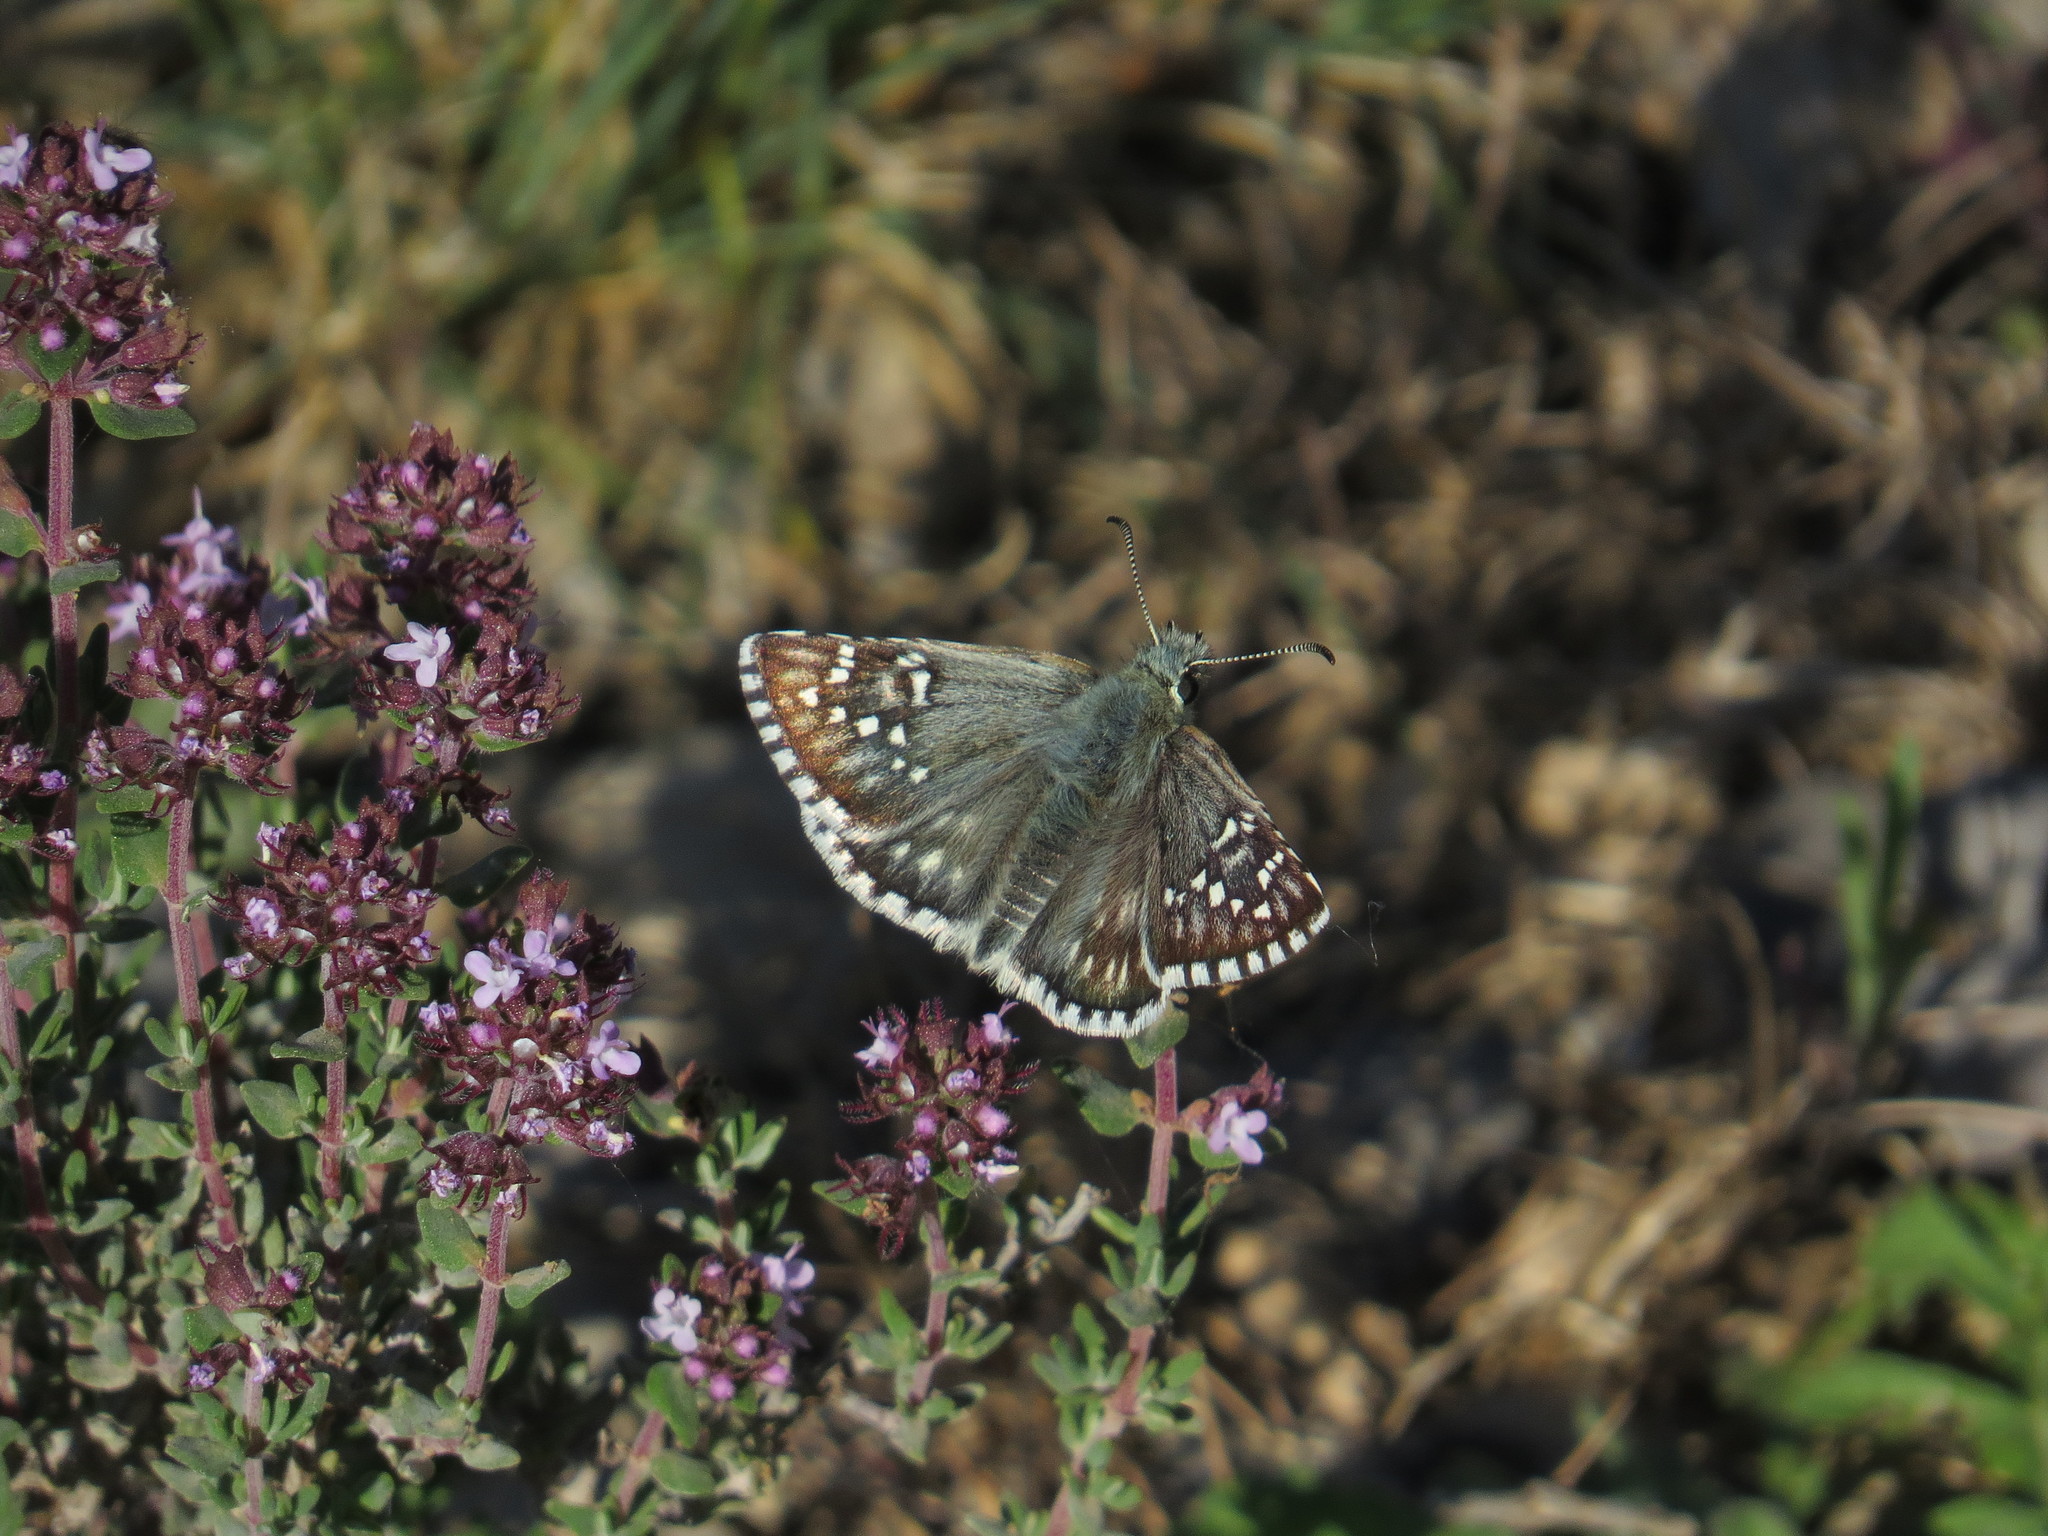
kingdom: Animalia
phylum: Arthropoda
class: Insecta
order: Lepidoptera
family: Hesperiidae
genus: Pyrgus
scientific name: Pyrgus fritillarius
